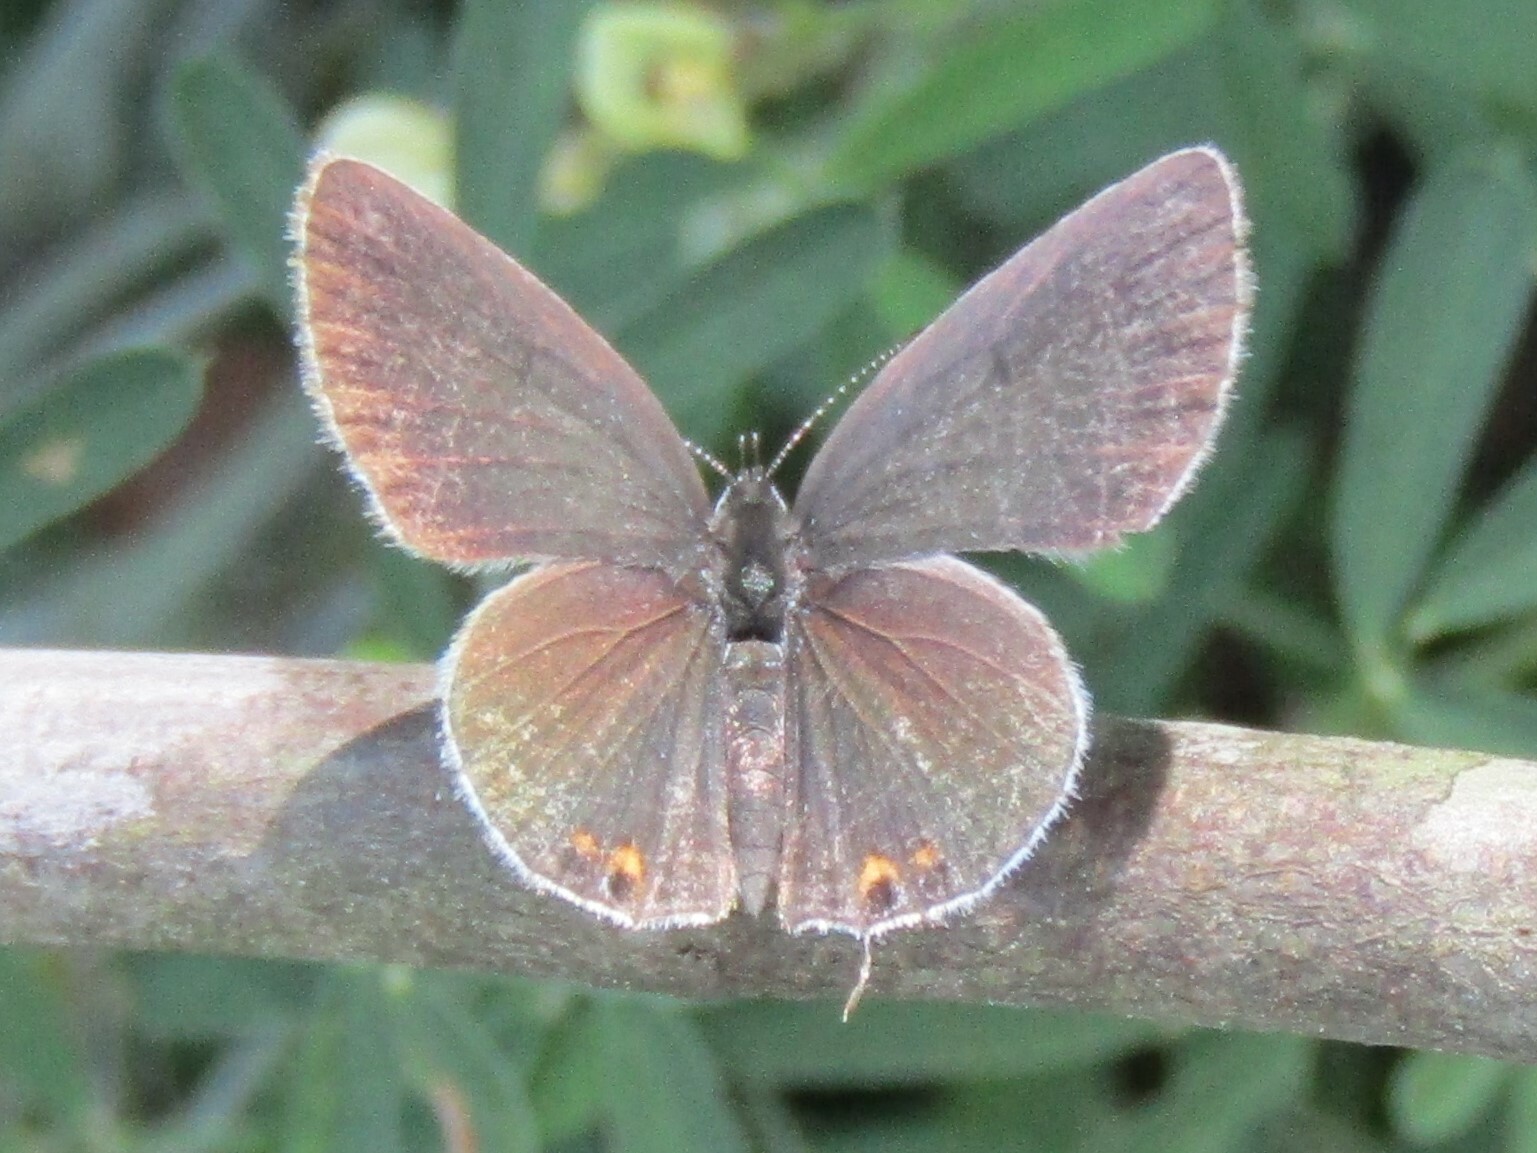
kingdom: Animalia
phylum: Arthropoda
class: Insecta
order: Lepidoptera
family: Lycaenidae
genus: Elkalyce
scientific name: Elkalyce comyntas
